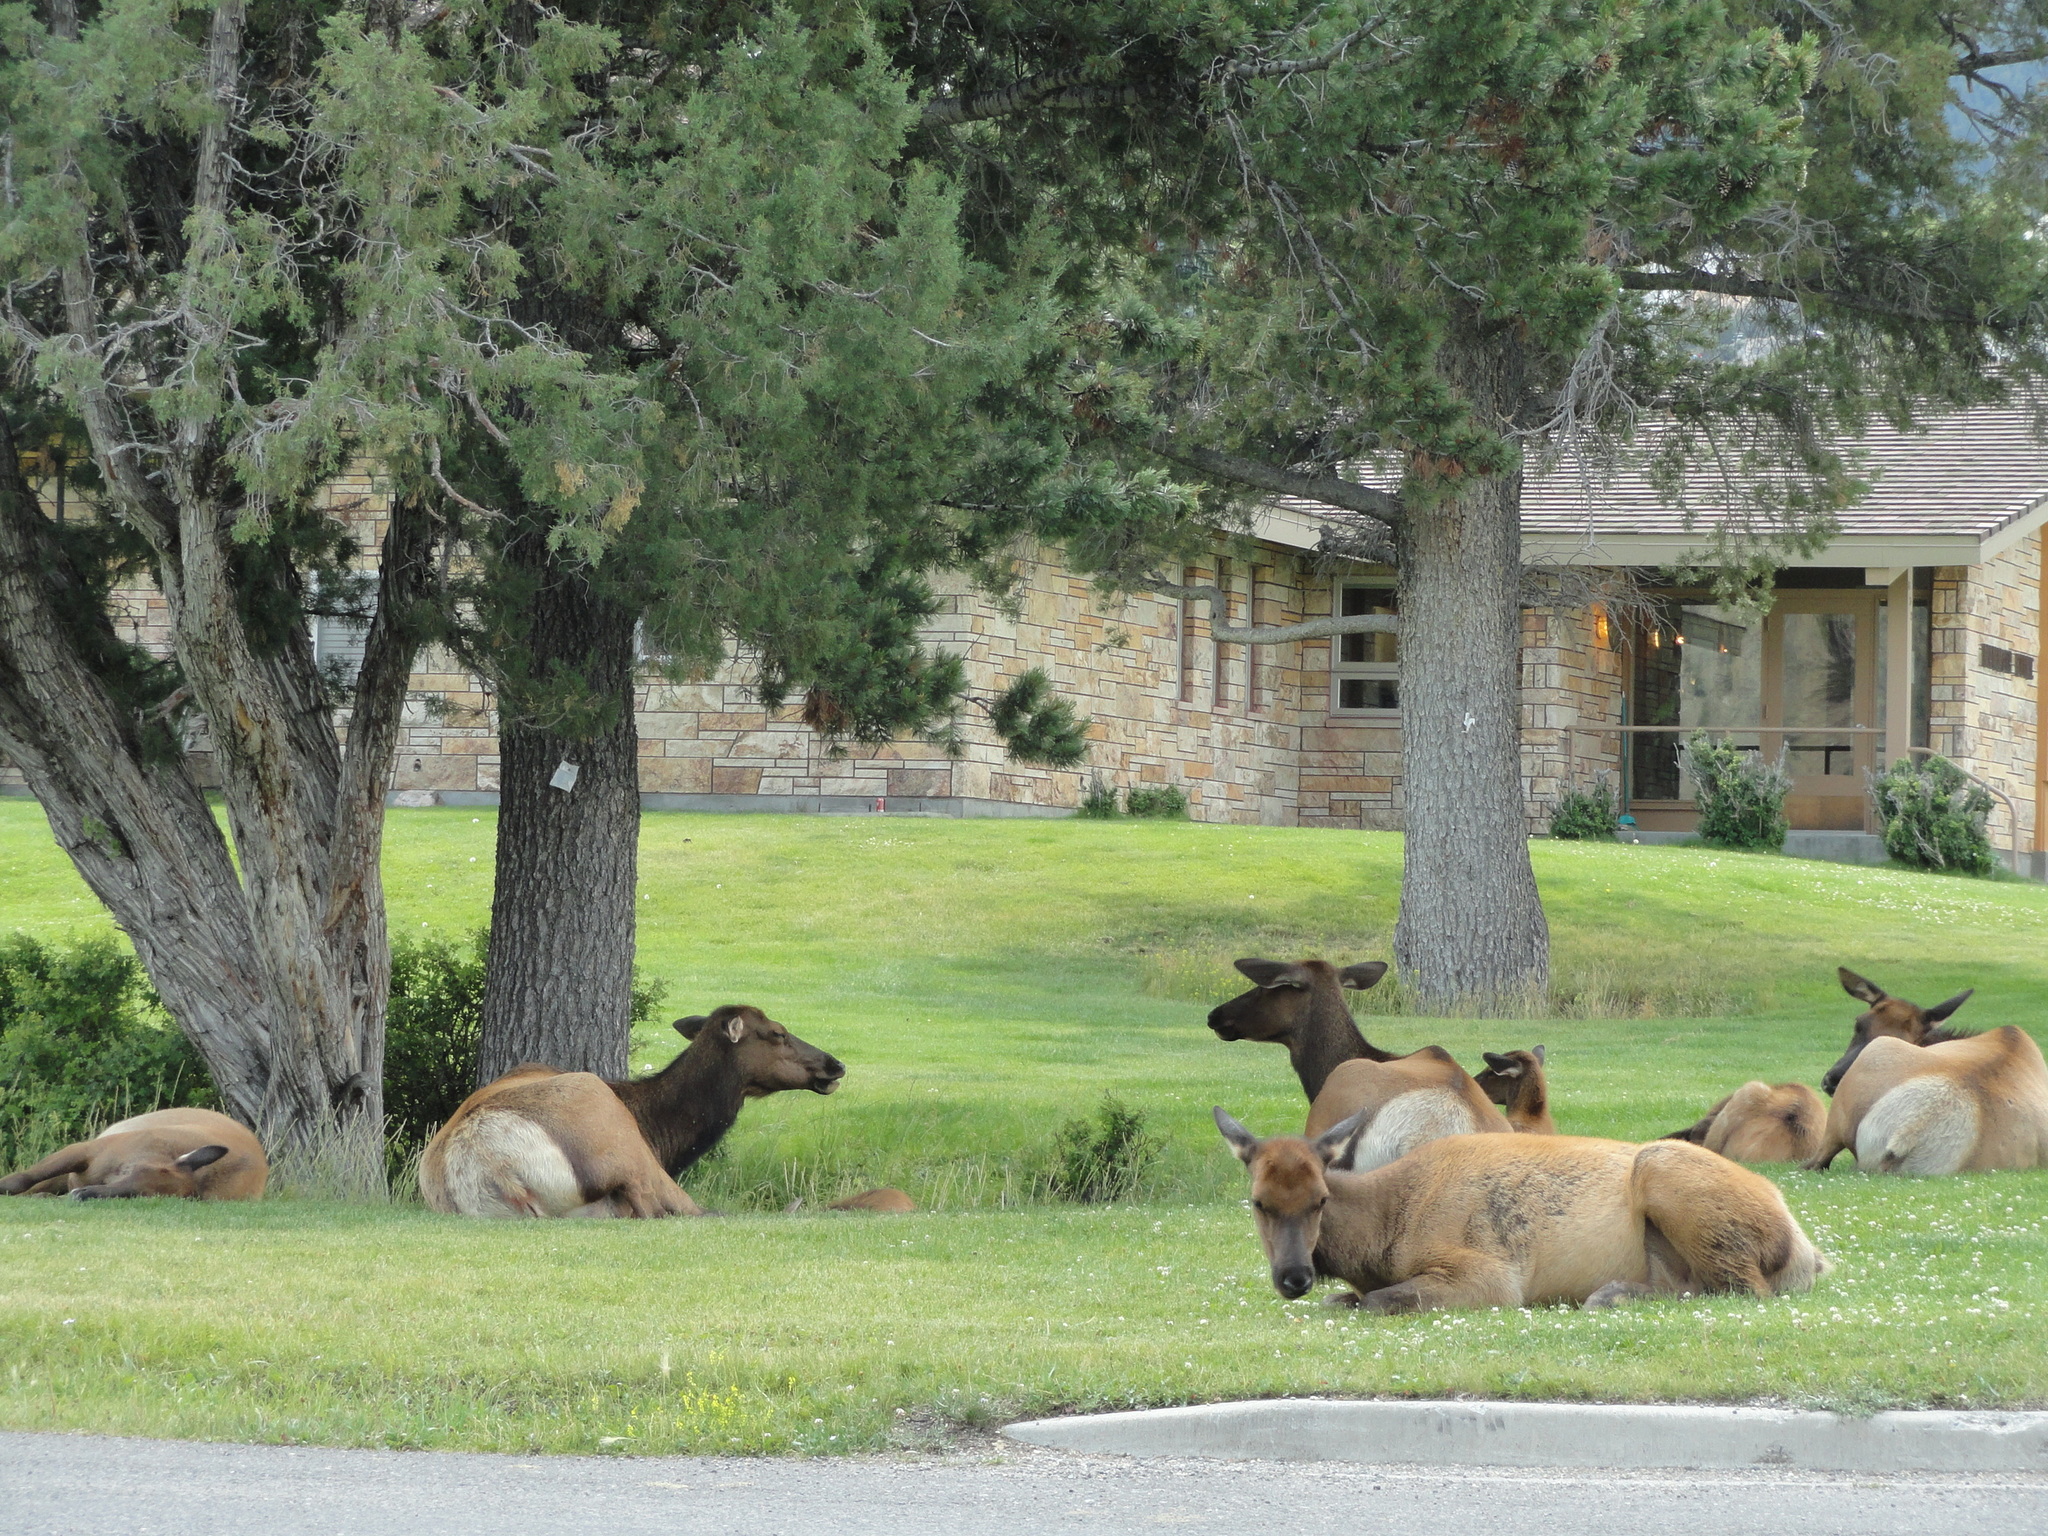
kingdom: Animalia
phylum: Chordata
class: Mammalia
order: Artiodactyla
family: Cervidae
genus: Cervus
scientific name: Cervus elaphus
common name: Red deer
